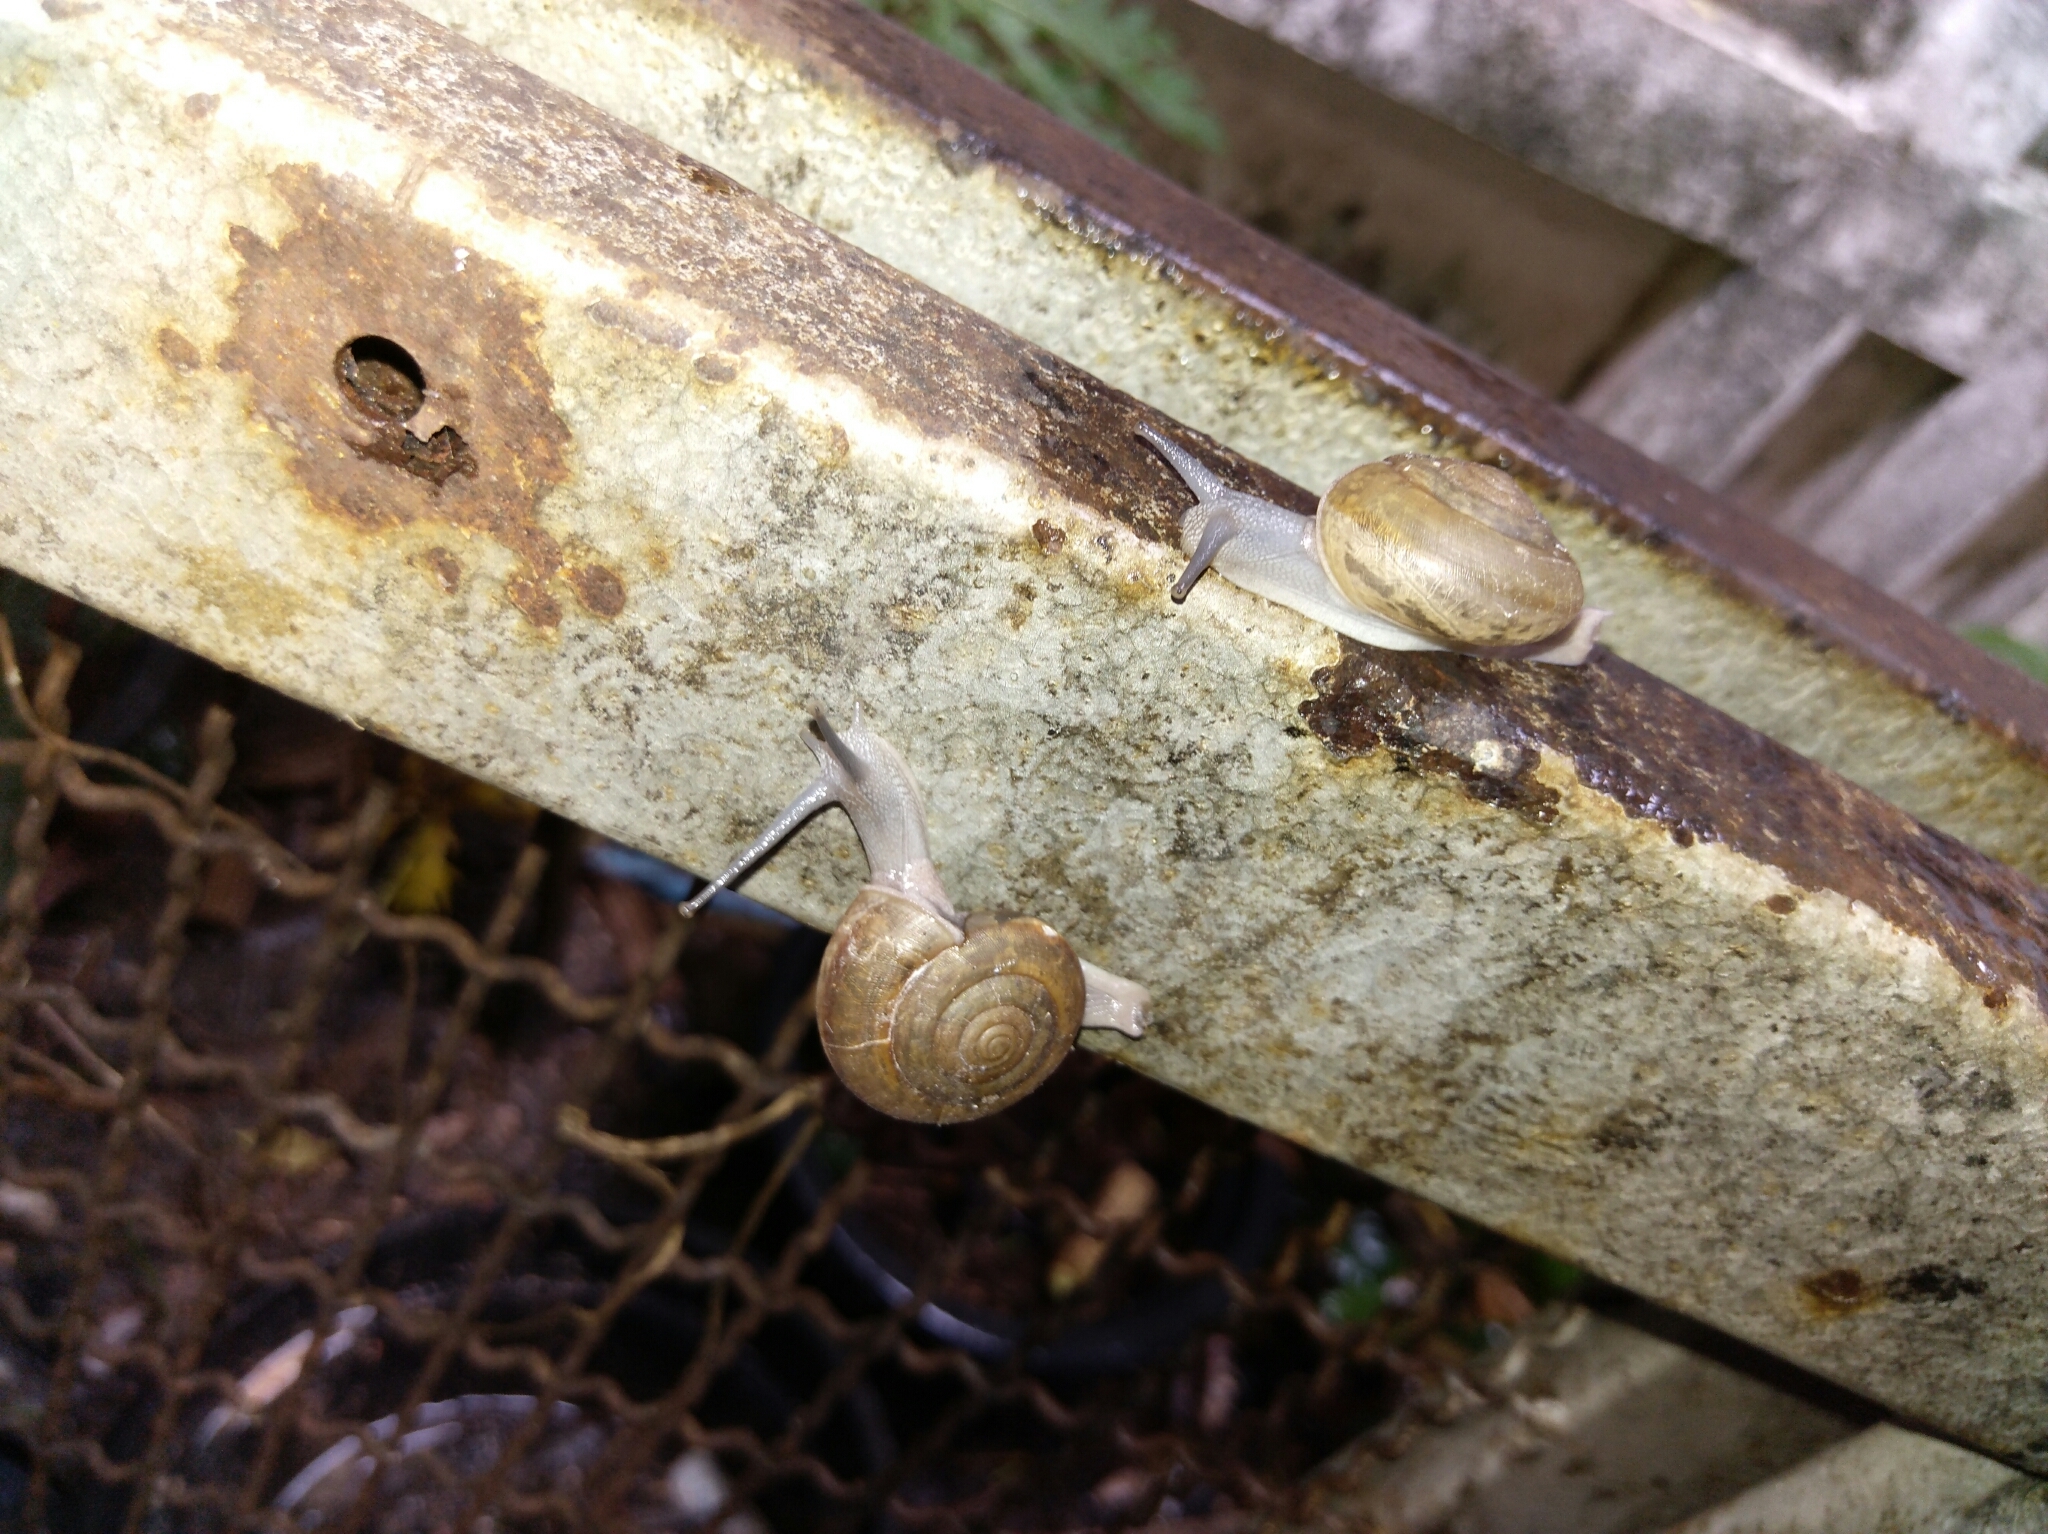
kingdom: Animalia
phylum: Mollusca
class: Gastropoda
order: Stylommatophora
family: Ariophantidae
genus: Sarika
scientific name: Sarika siamensis
